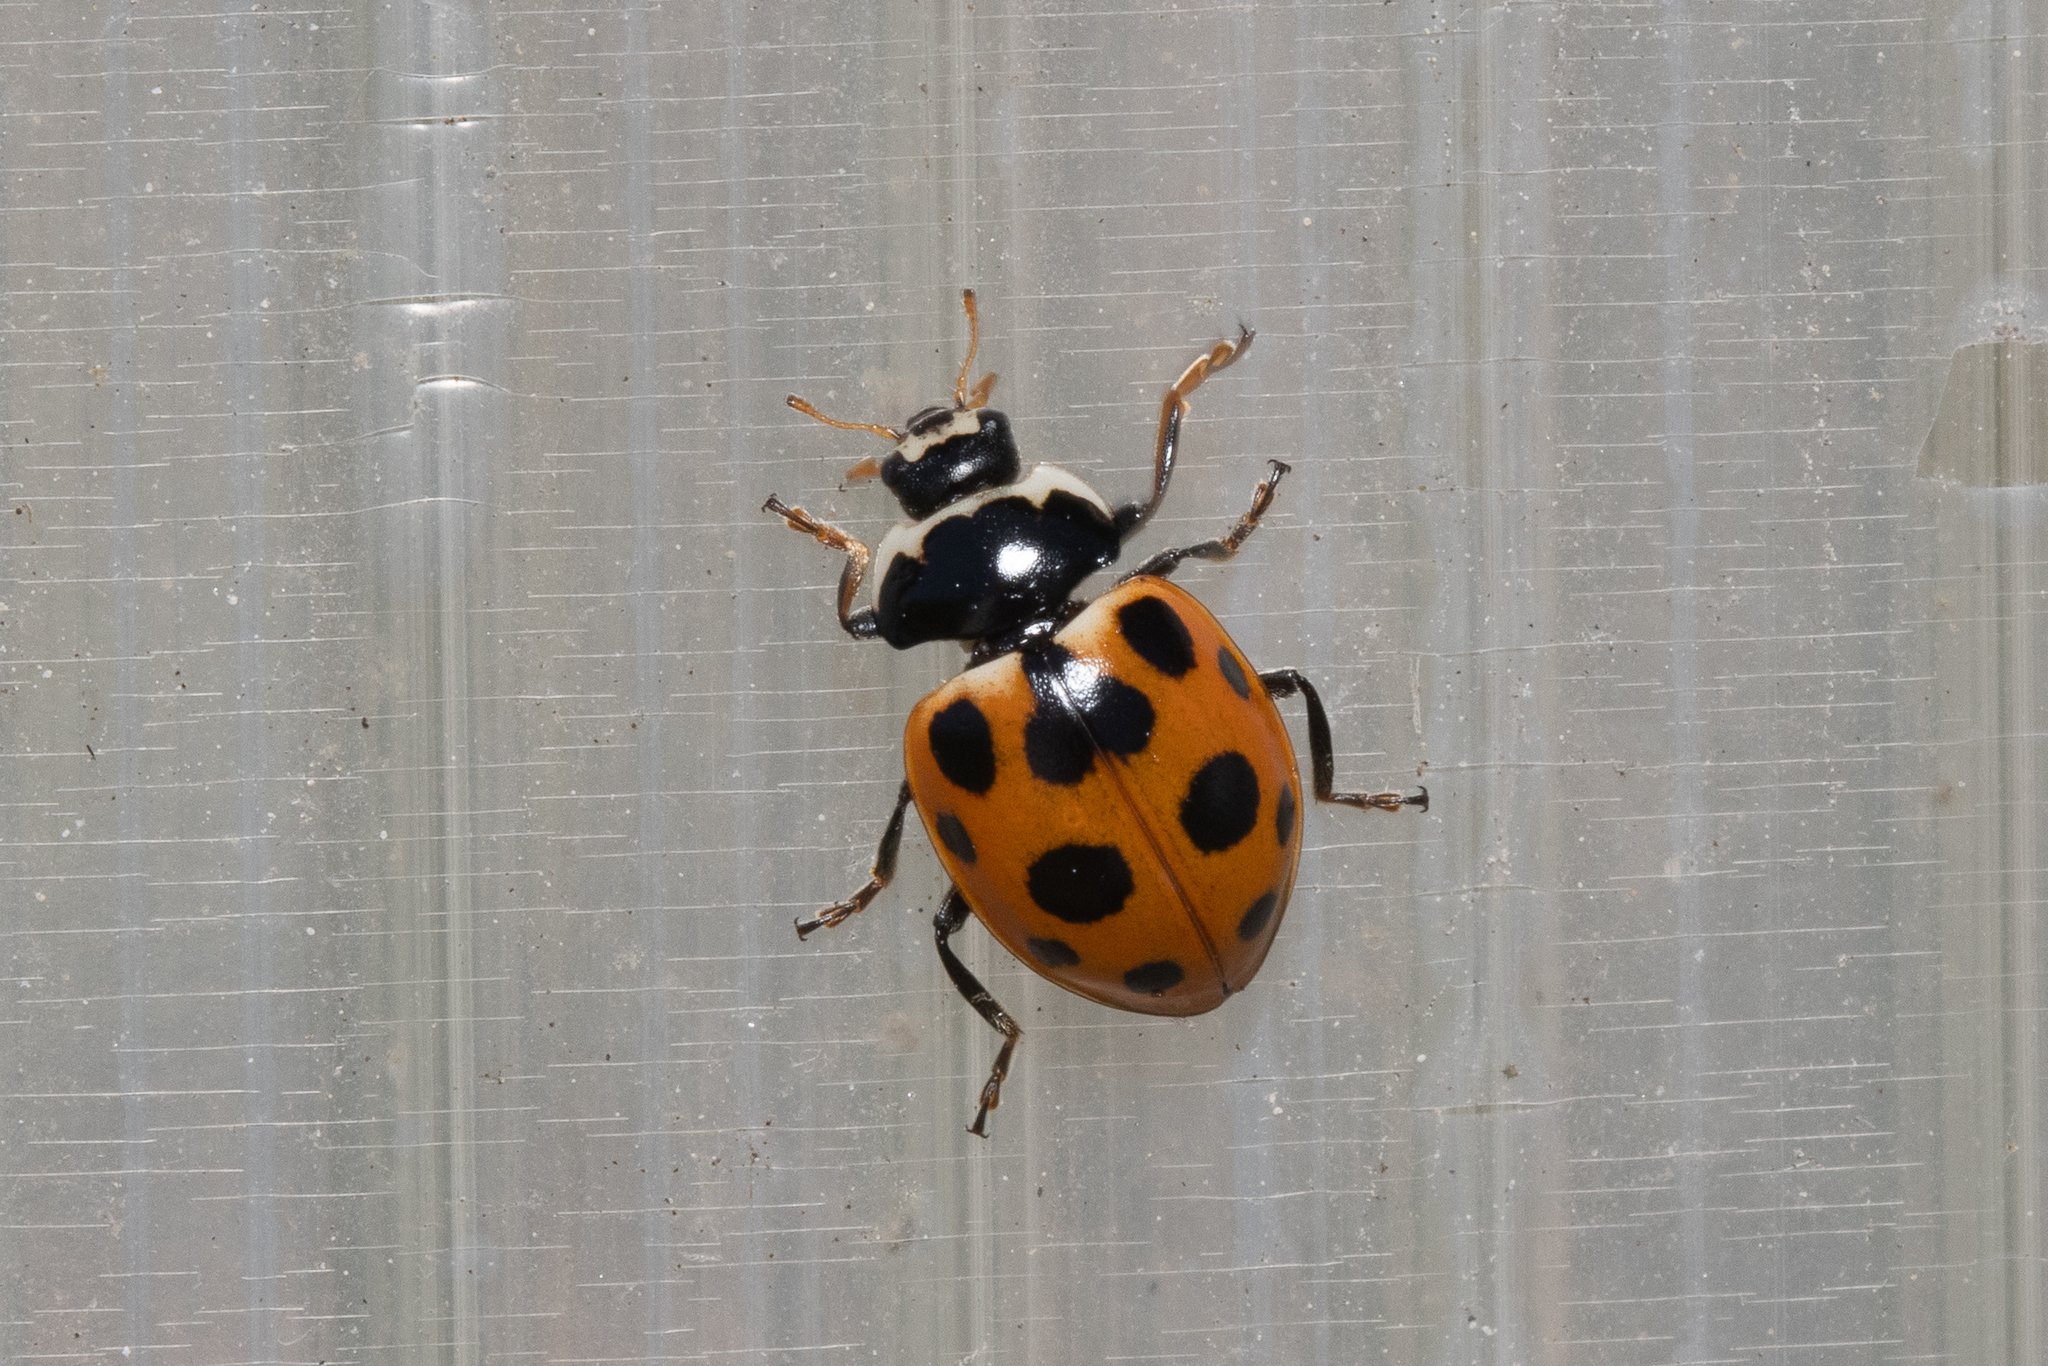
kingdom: Animalia
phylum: Arthropoda
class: Insecta
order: Coleoptera
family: Coccinellidae
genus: Ceratomegilla
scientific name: Ceratomegilla notata
